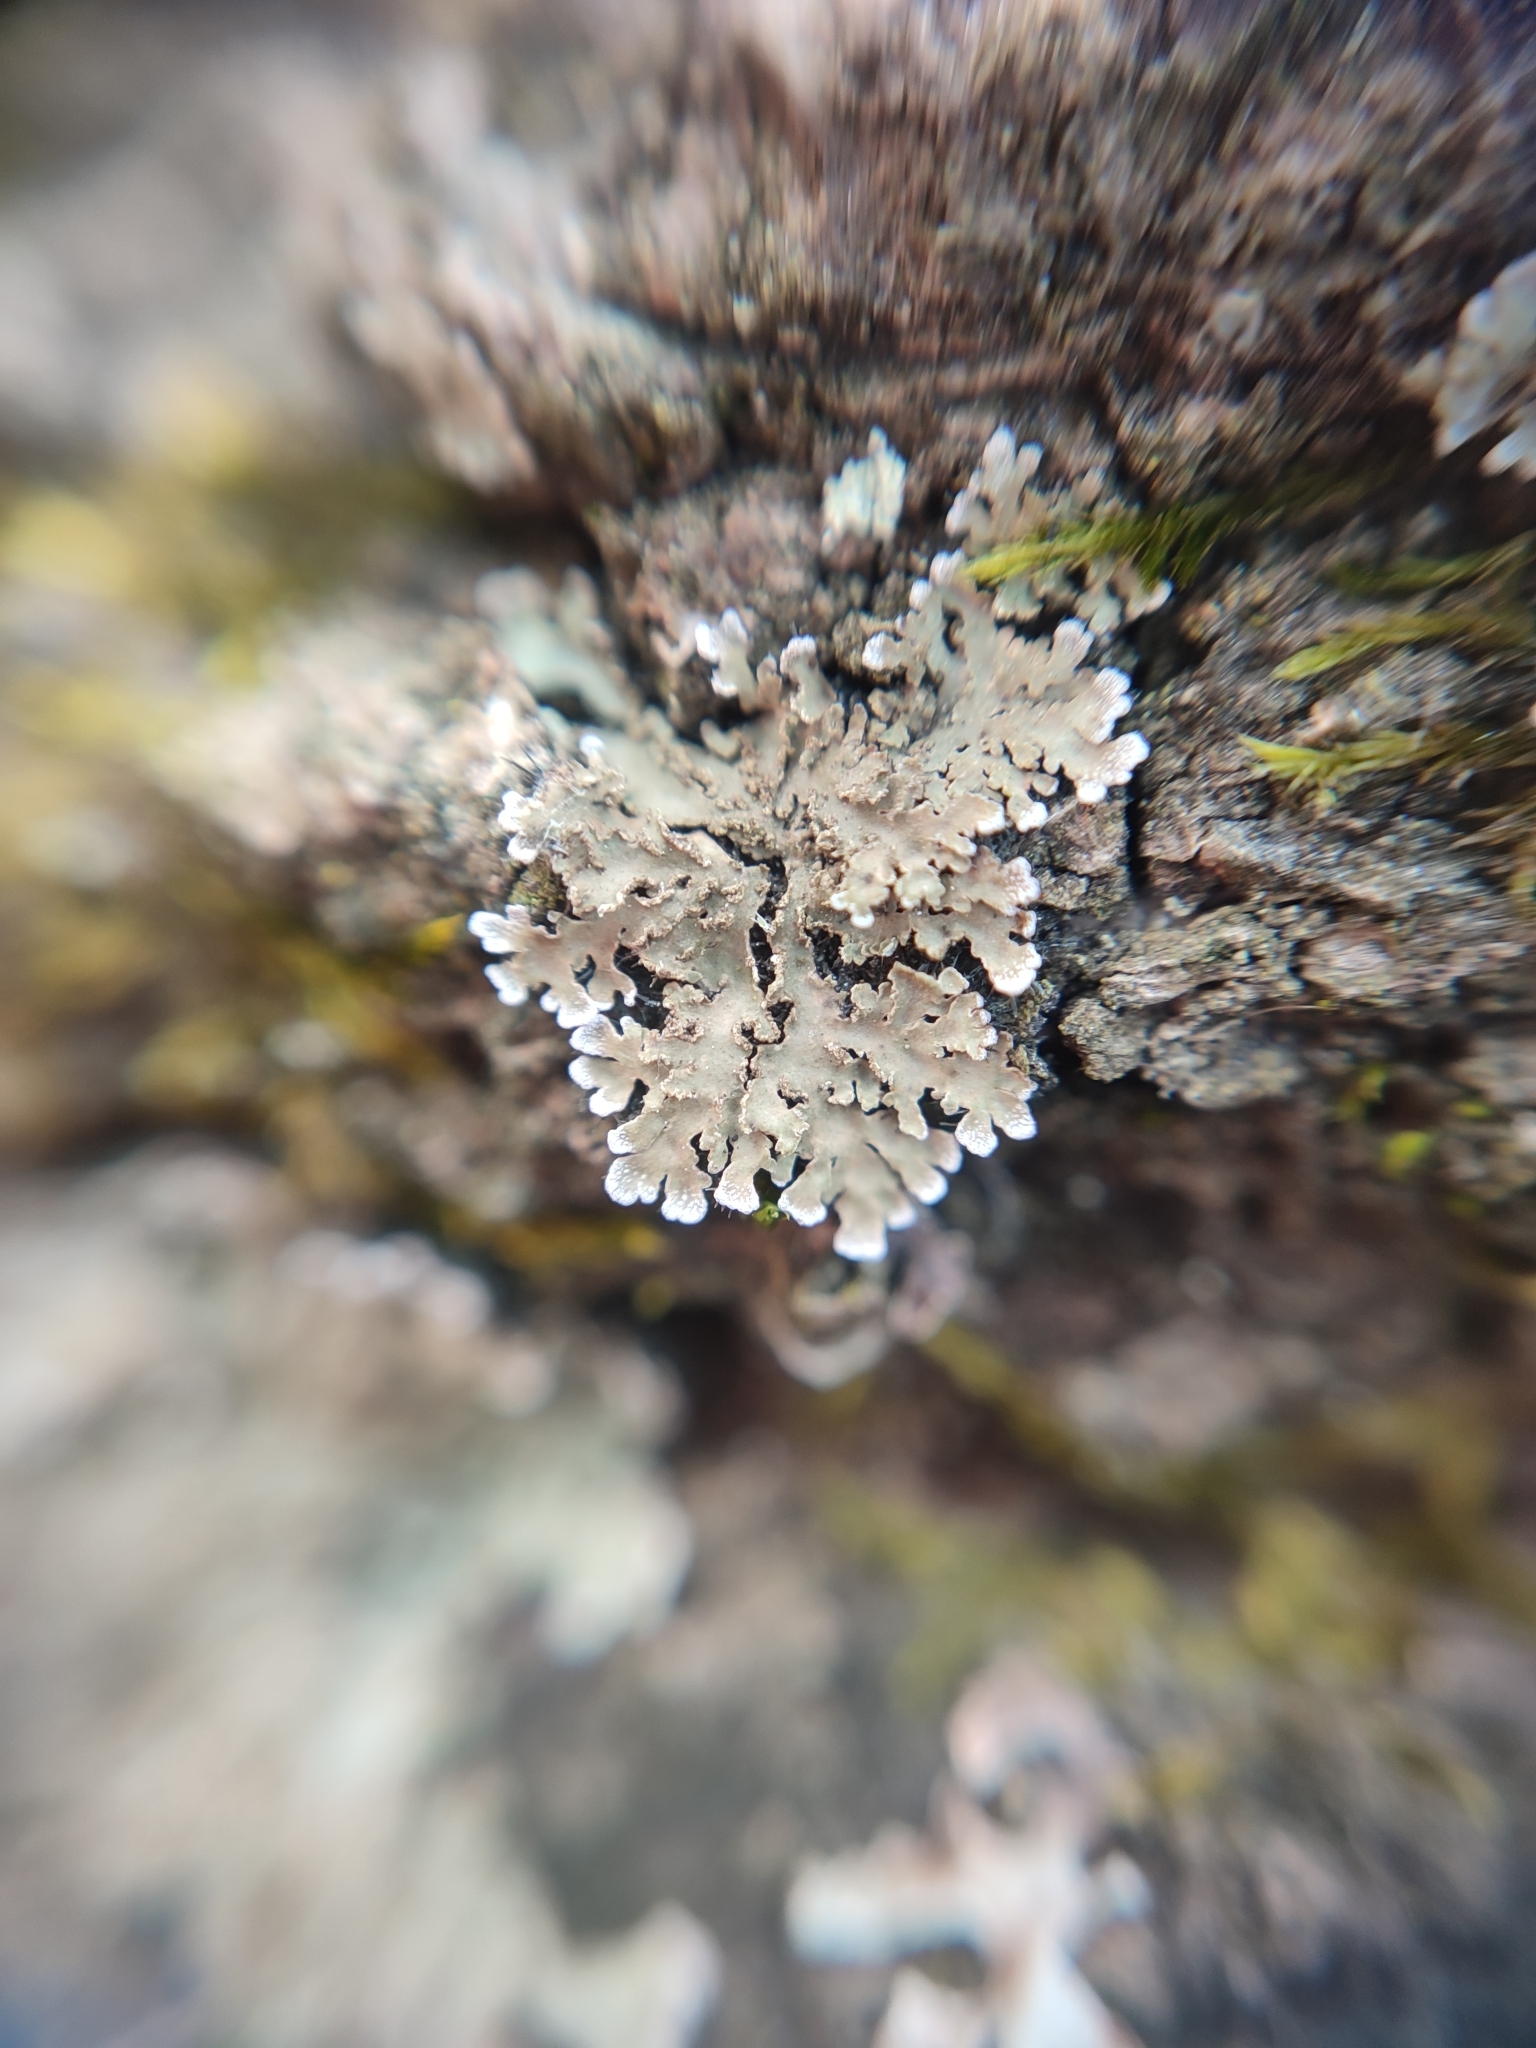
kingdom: Fungi
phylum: Ascomycota
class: Lecanoromycetes
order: Caliciales
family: Physciaceae
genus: Poeltonia
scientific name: Poeltonia grisea
